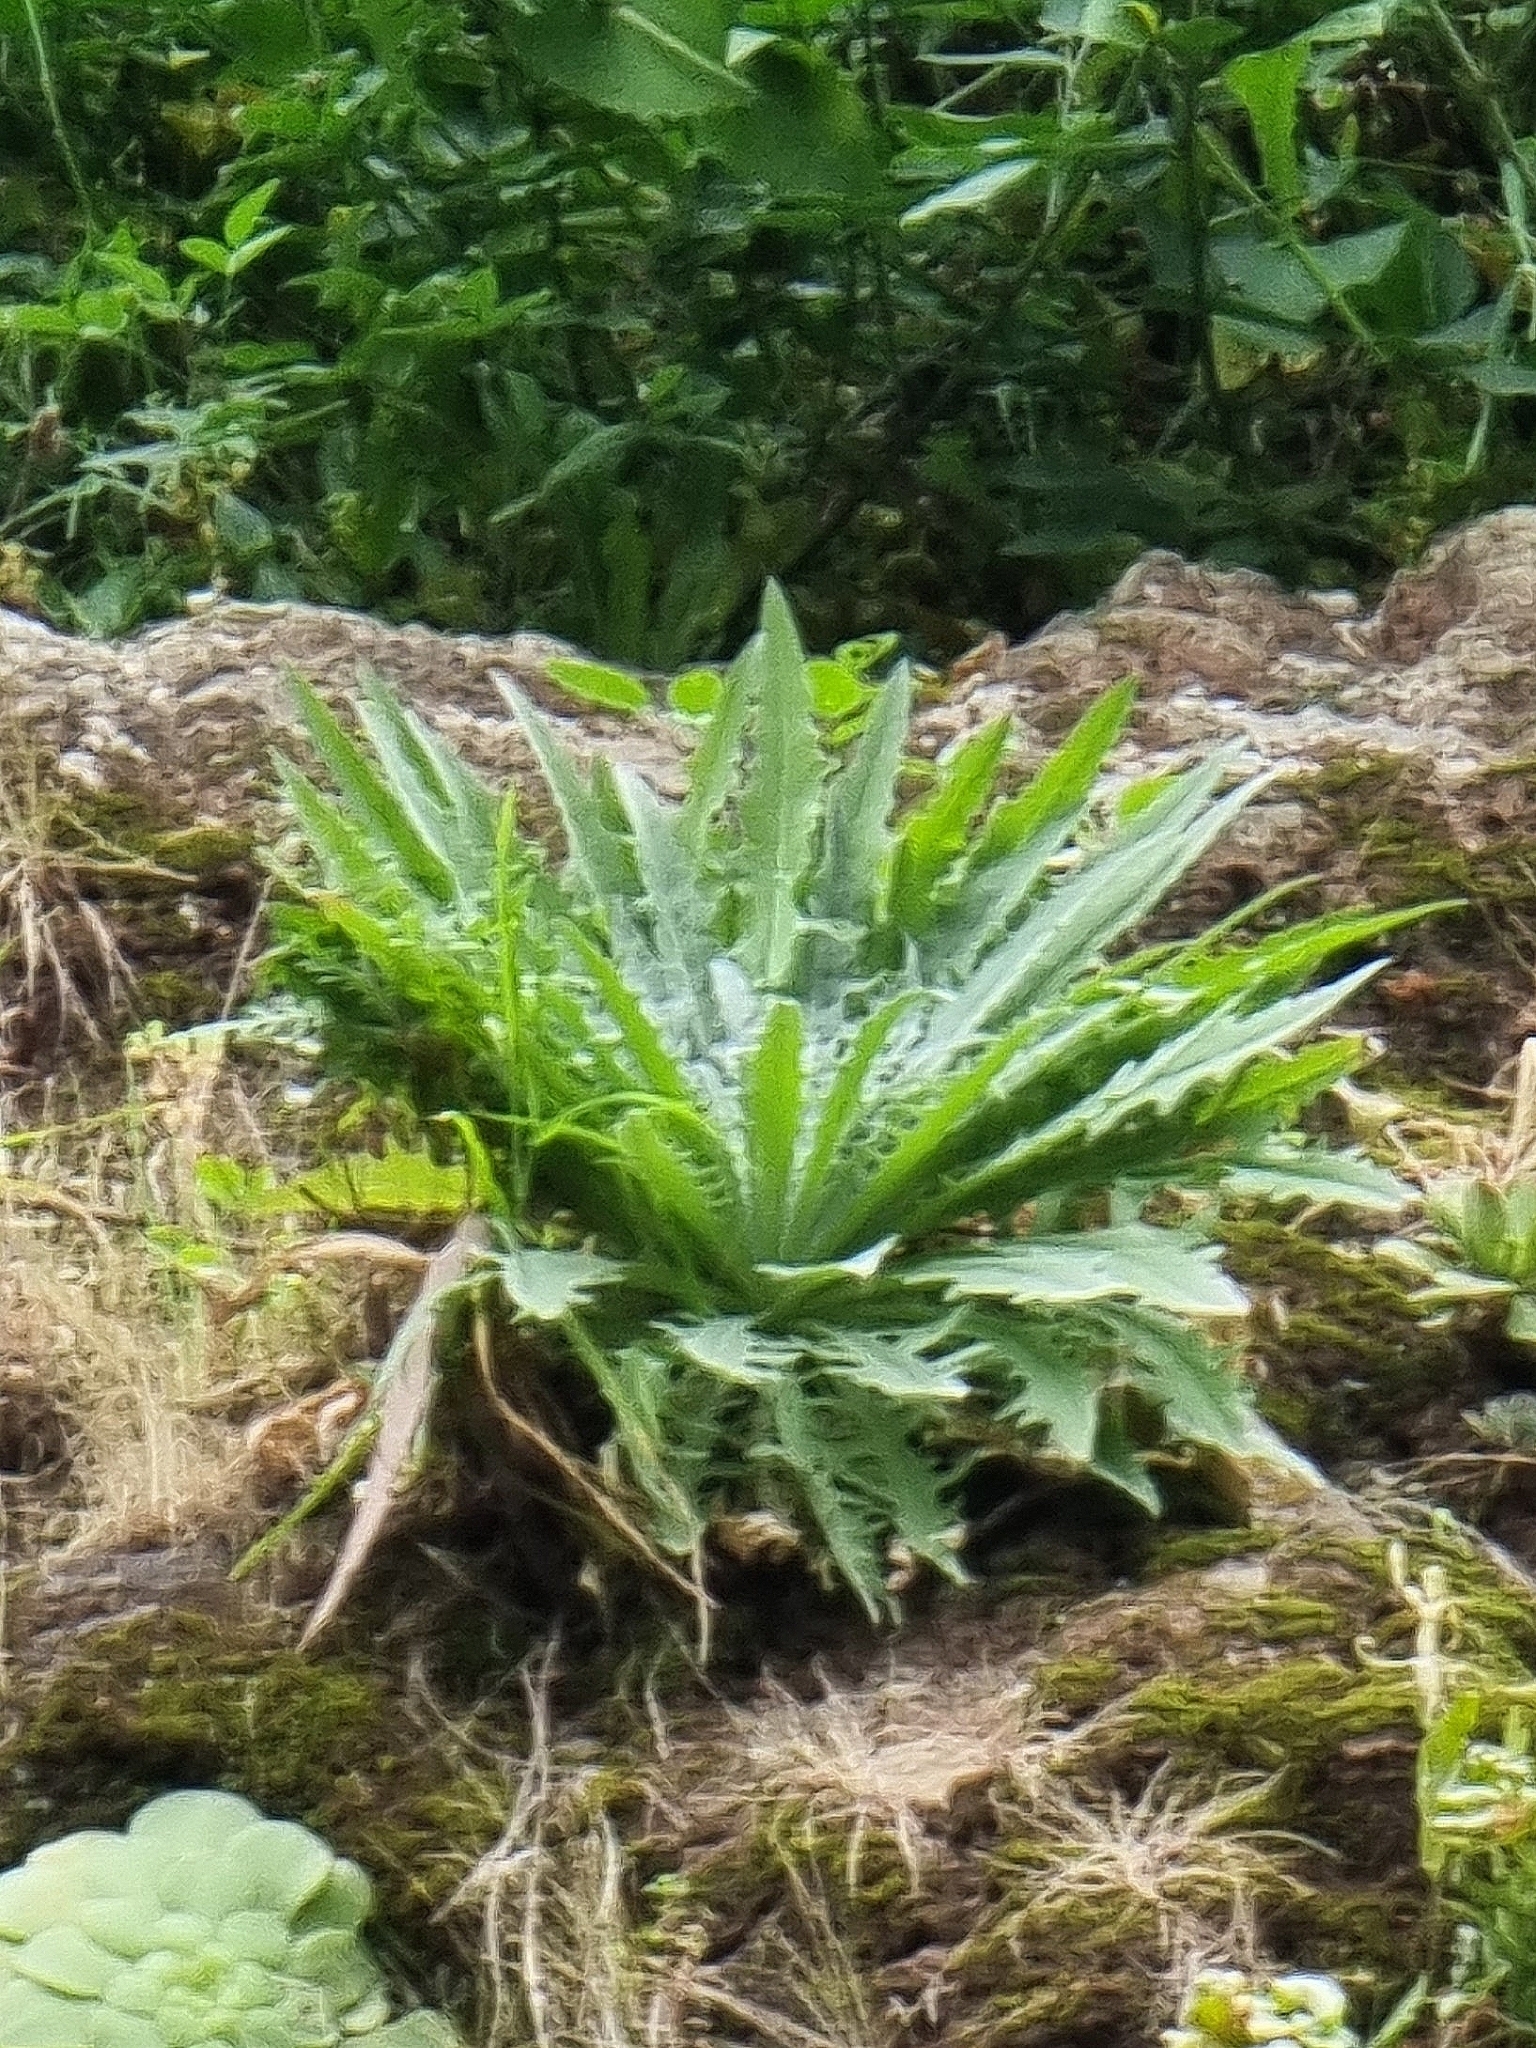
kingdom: Plantae
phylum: Tracheophyta
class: Magnoliopsida
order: Asterales
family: Asteraceae
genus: Andryala
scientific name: Andryala glandulosa
